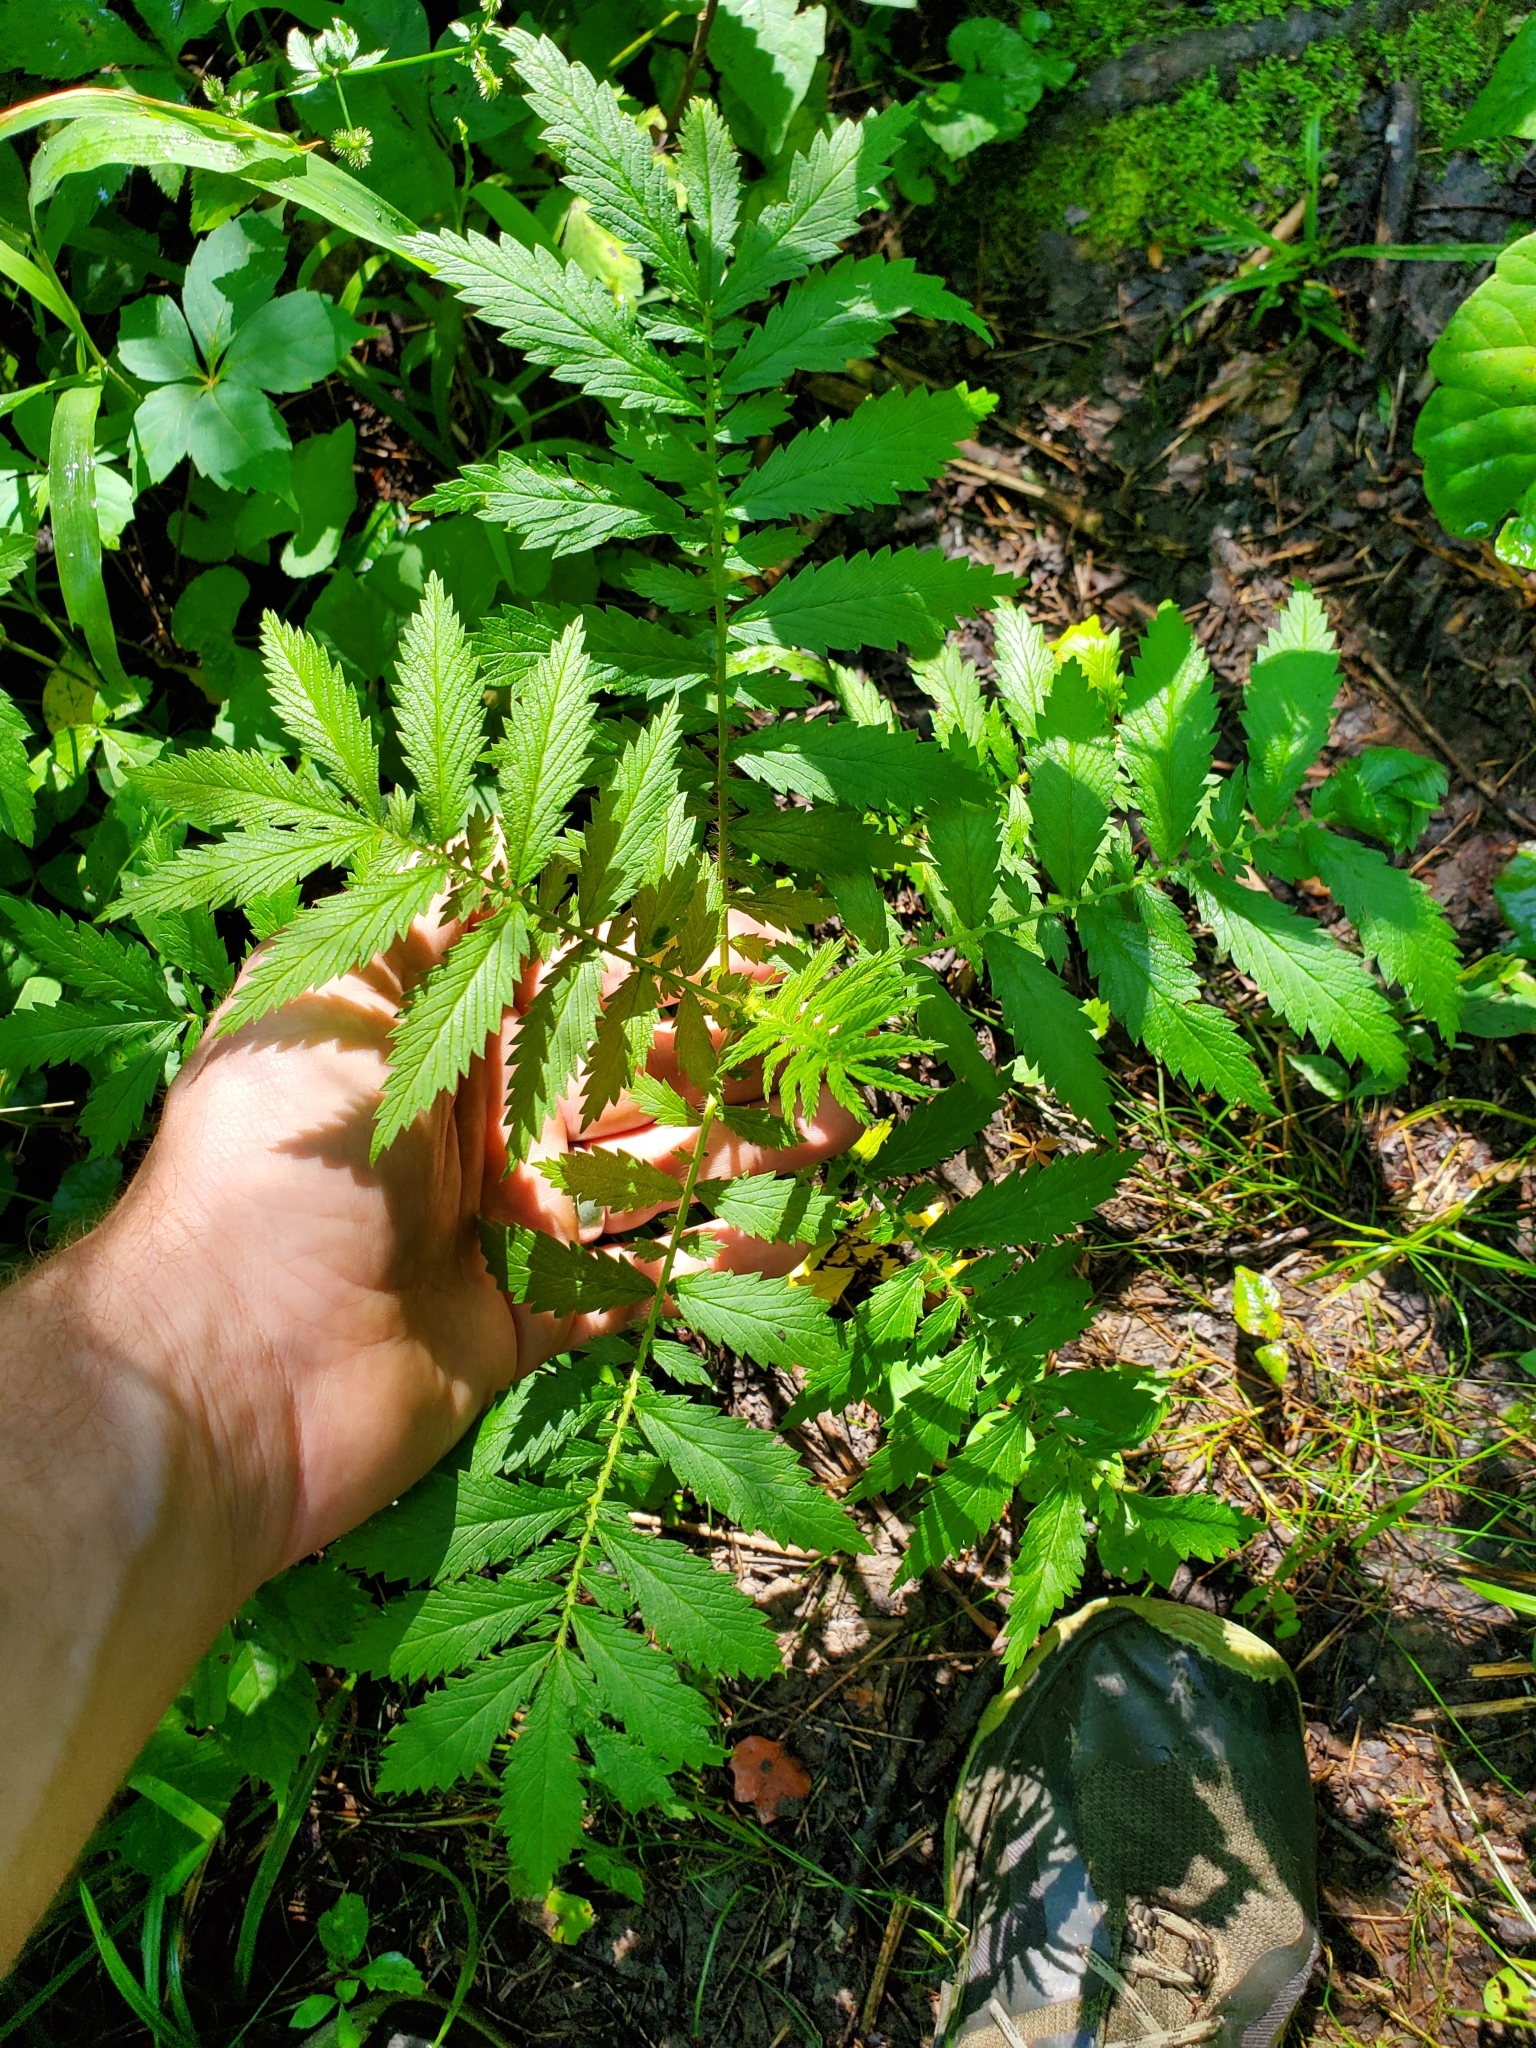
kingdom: Plantae
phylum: Tracheophyta
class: Magnoliopsida
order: Rosales
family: Rosaceae
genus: Agrimonia
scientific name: Agrimonia parviflora
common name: Harvest-lice
